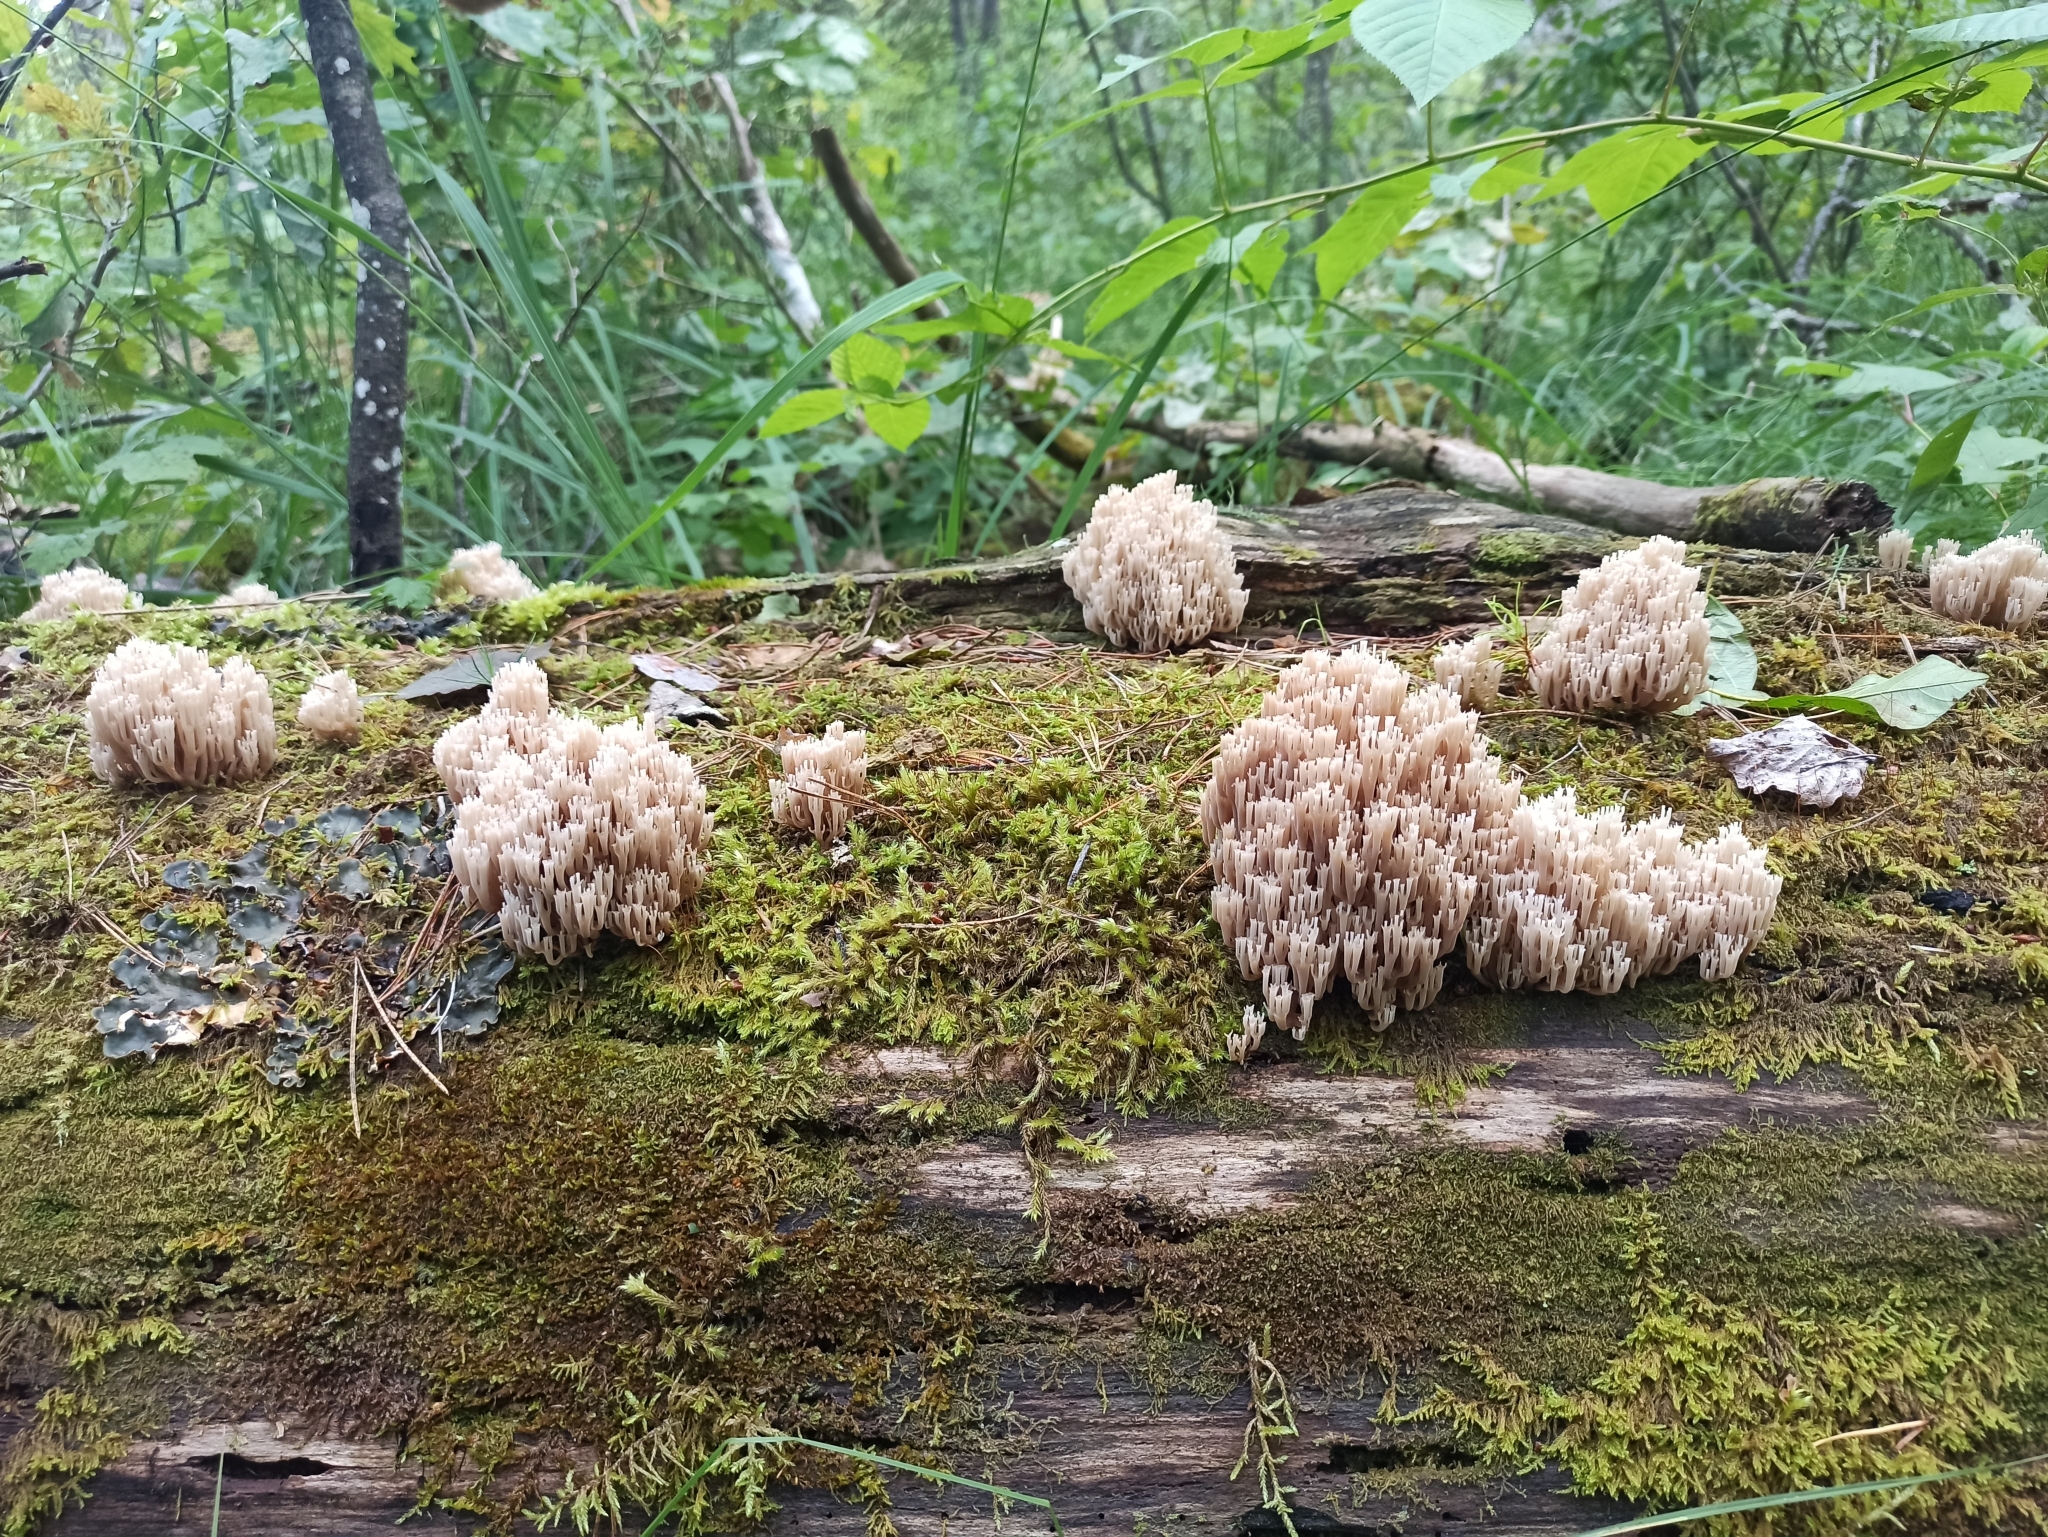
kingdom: Fungi
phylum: Basidiomycota
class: Agaricomycetes
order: Russulales
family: Auriscalpiaceae
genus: Artomyces
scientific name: Artomyces pyxidatus
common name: Crown-tipped coral fungus
